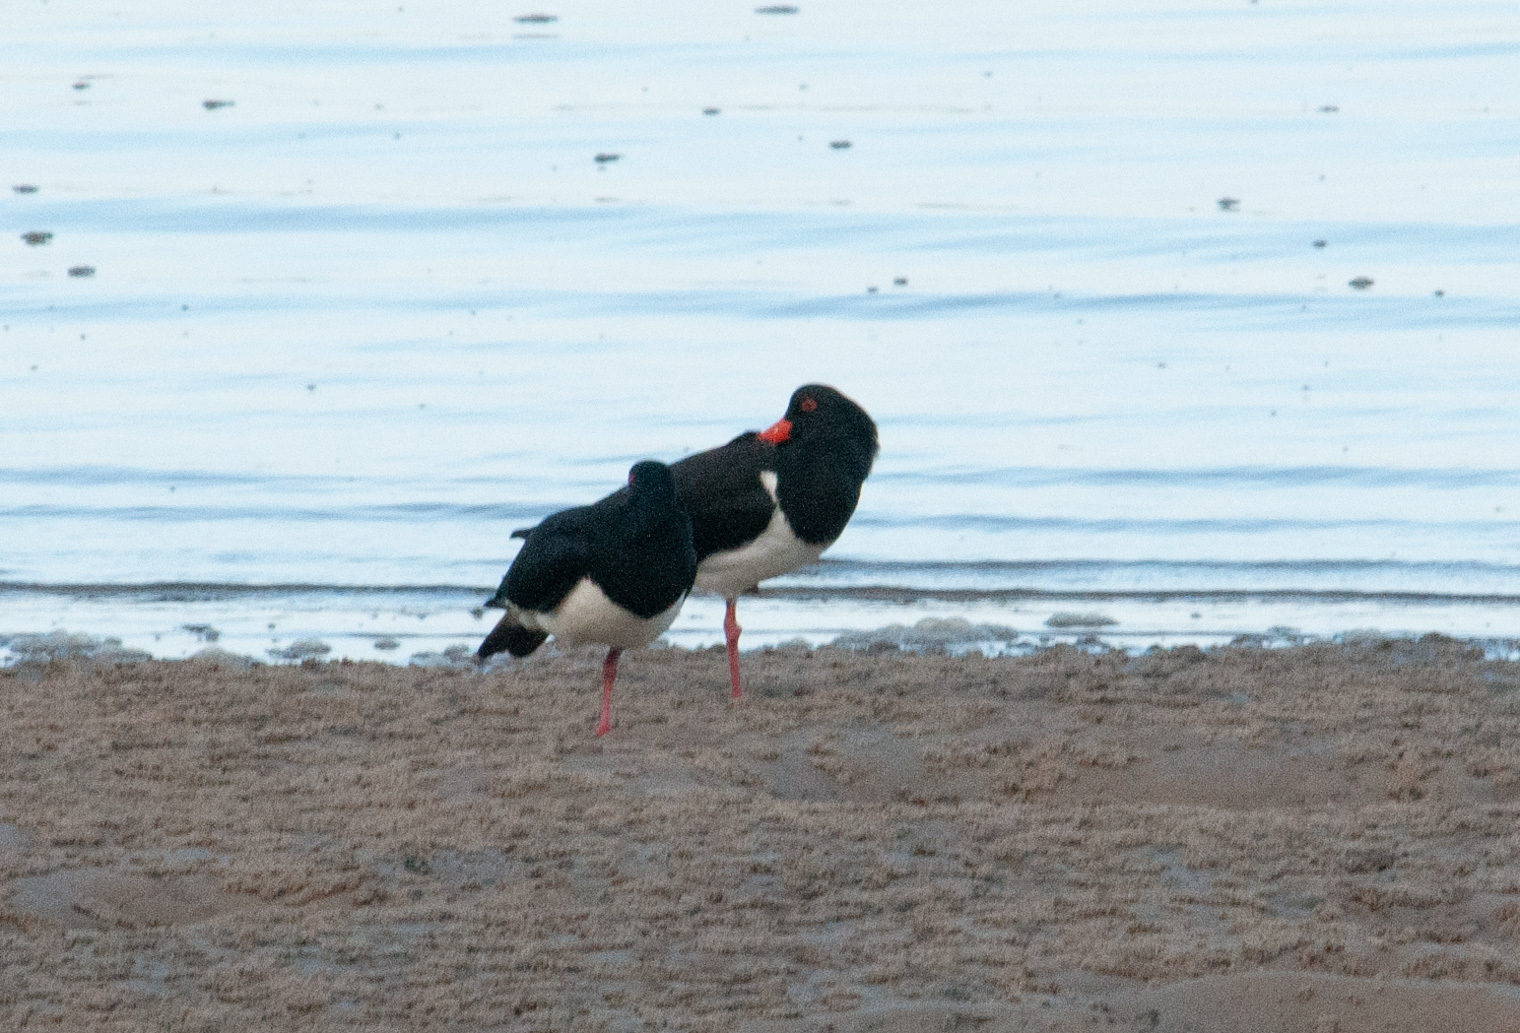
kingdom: Animalia
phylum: Chordata
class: Aves
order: Charadriiformes
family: Haematopodidae
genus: Haematopus
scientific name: Haematopus longirostris
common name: Pied oystercatcher
